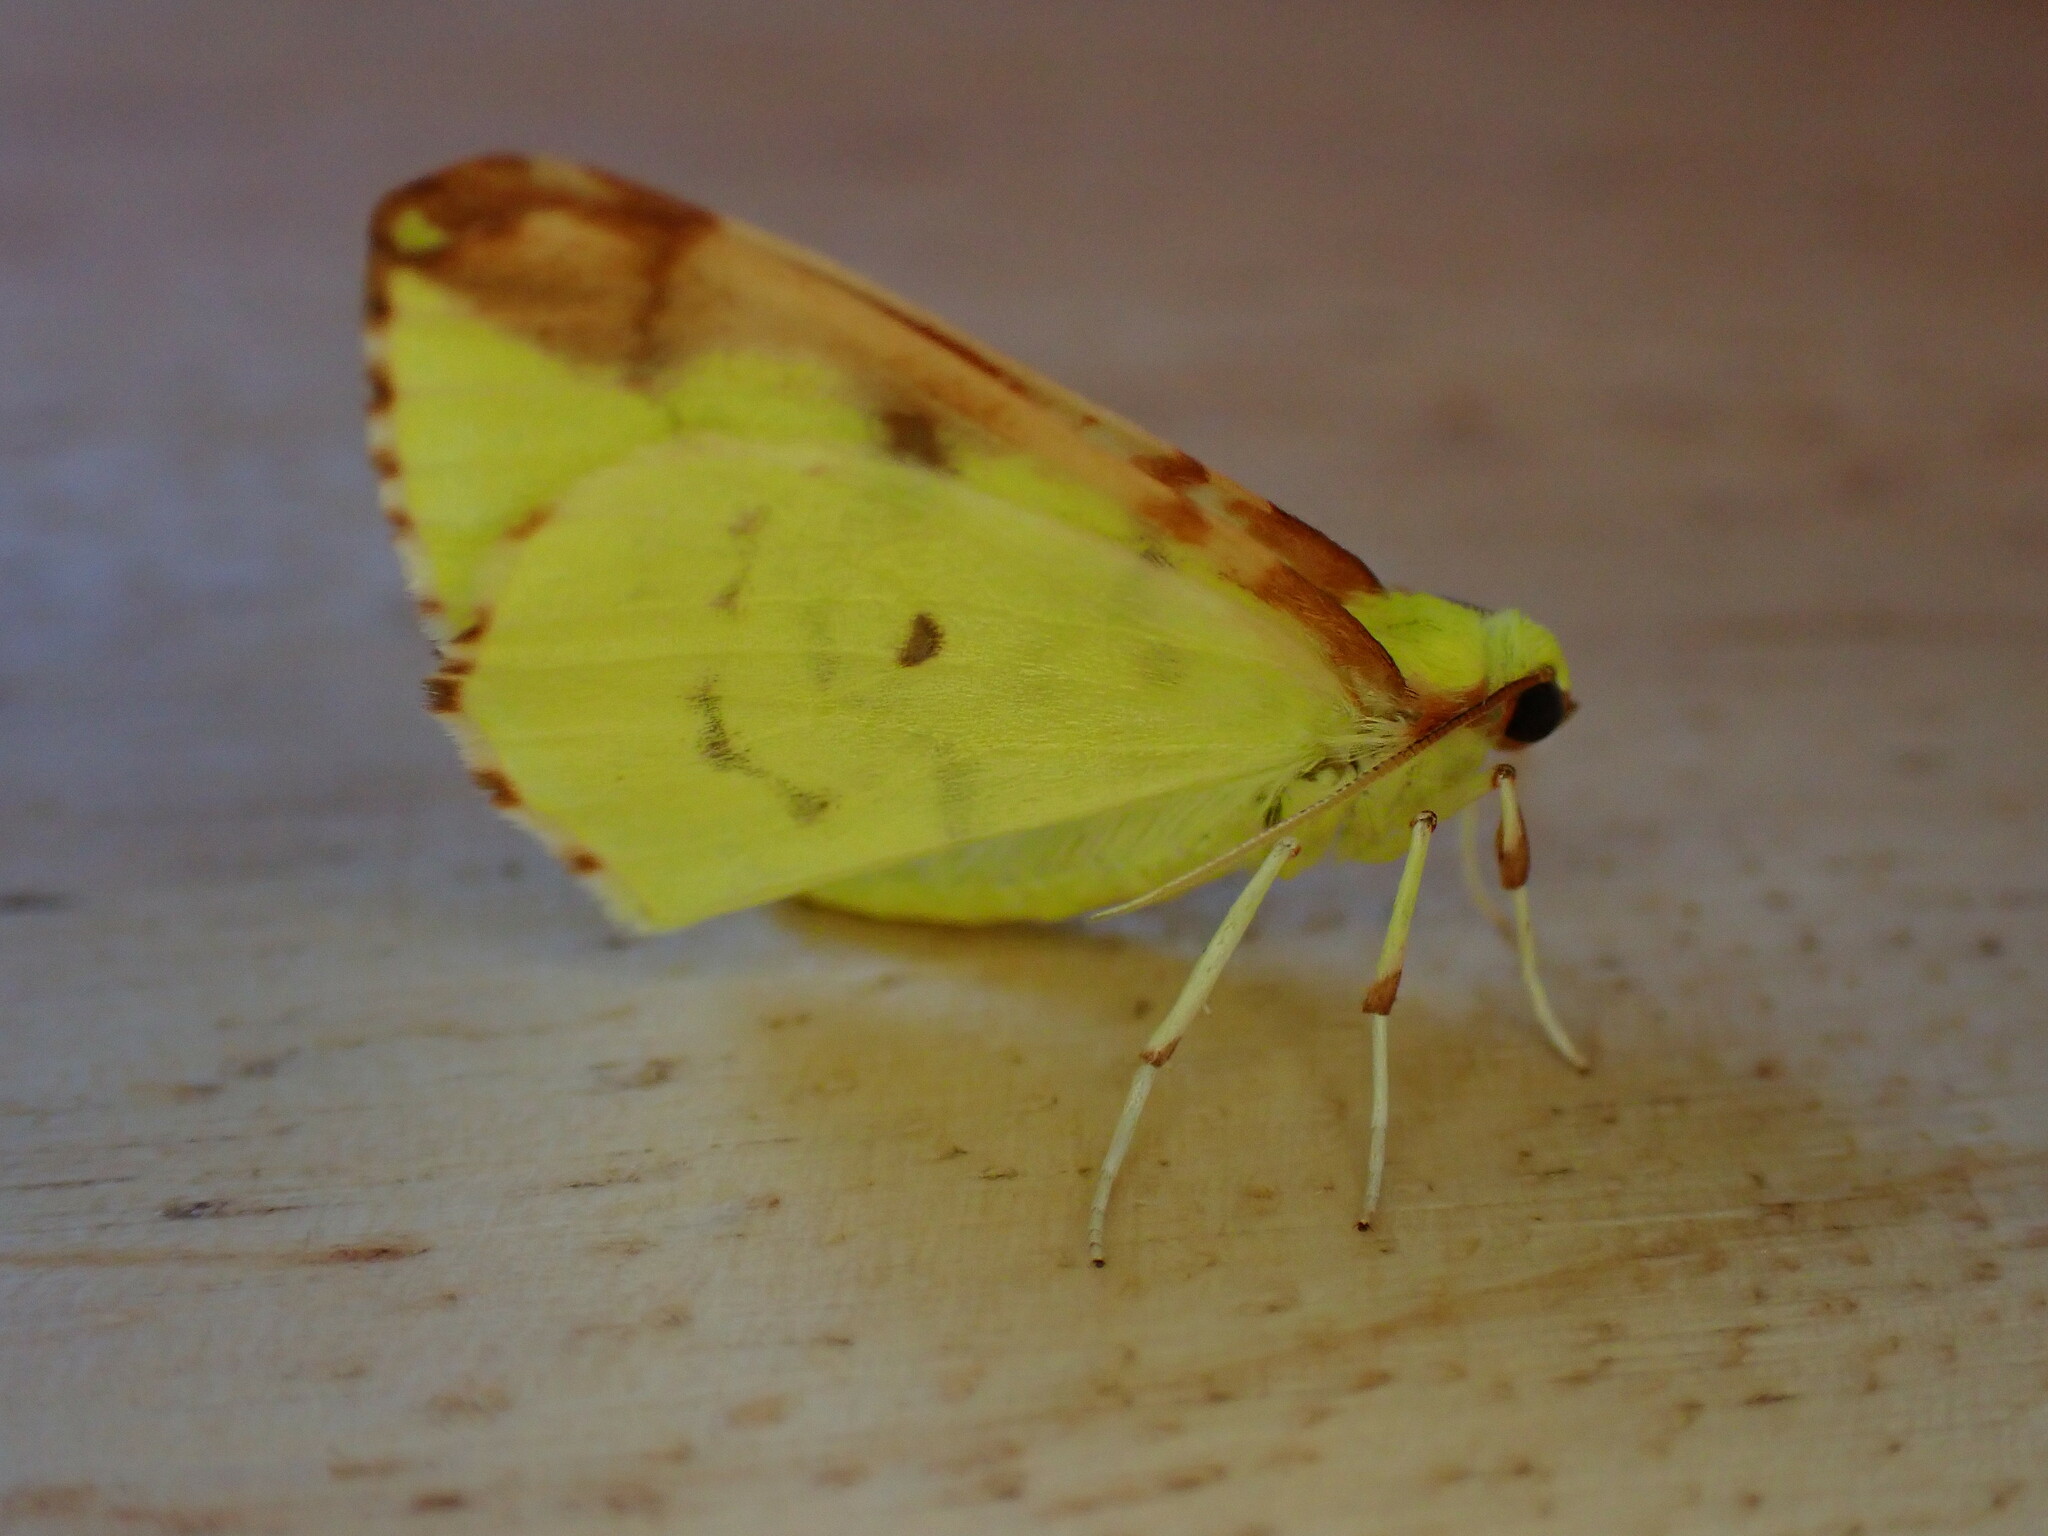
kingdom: Animalia
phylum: Arthropoda
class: Insecta
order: Lepidoptera
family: Geometridae
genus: Opisthograptis
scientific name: Opisthograptis luteolata
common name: Brimstone moth
